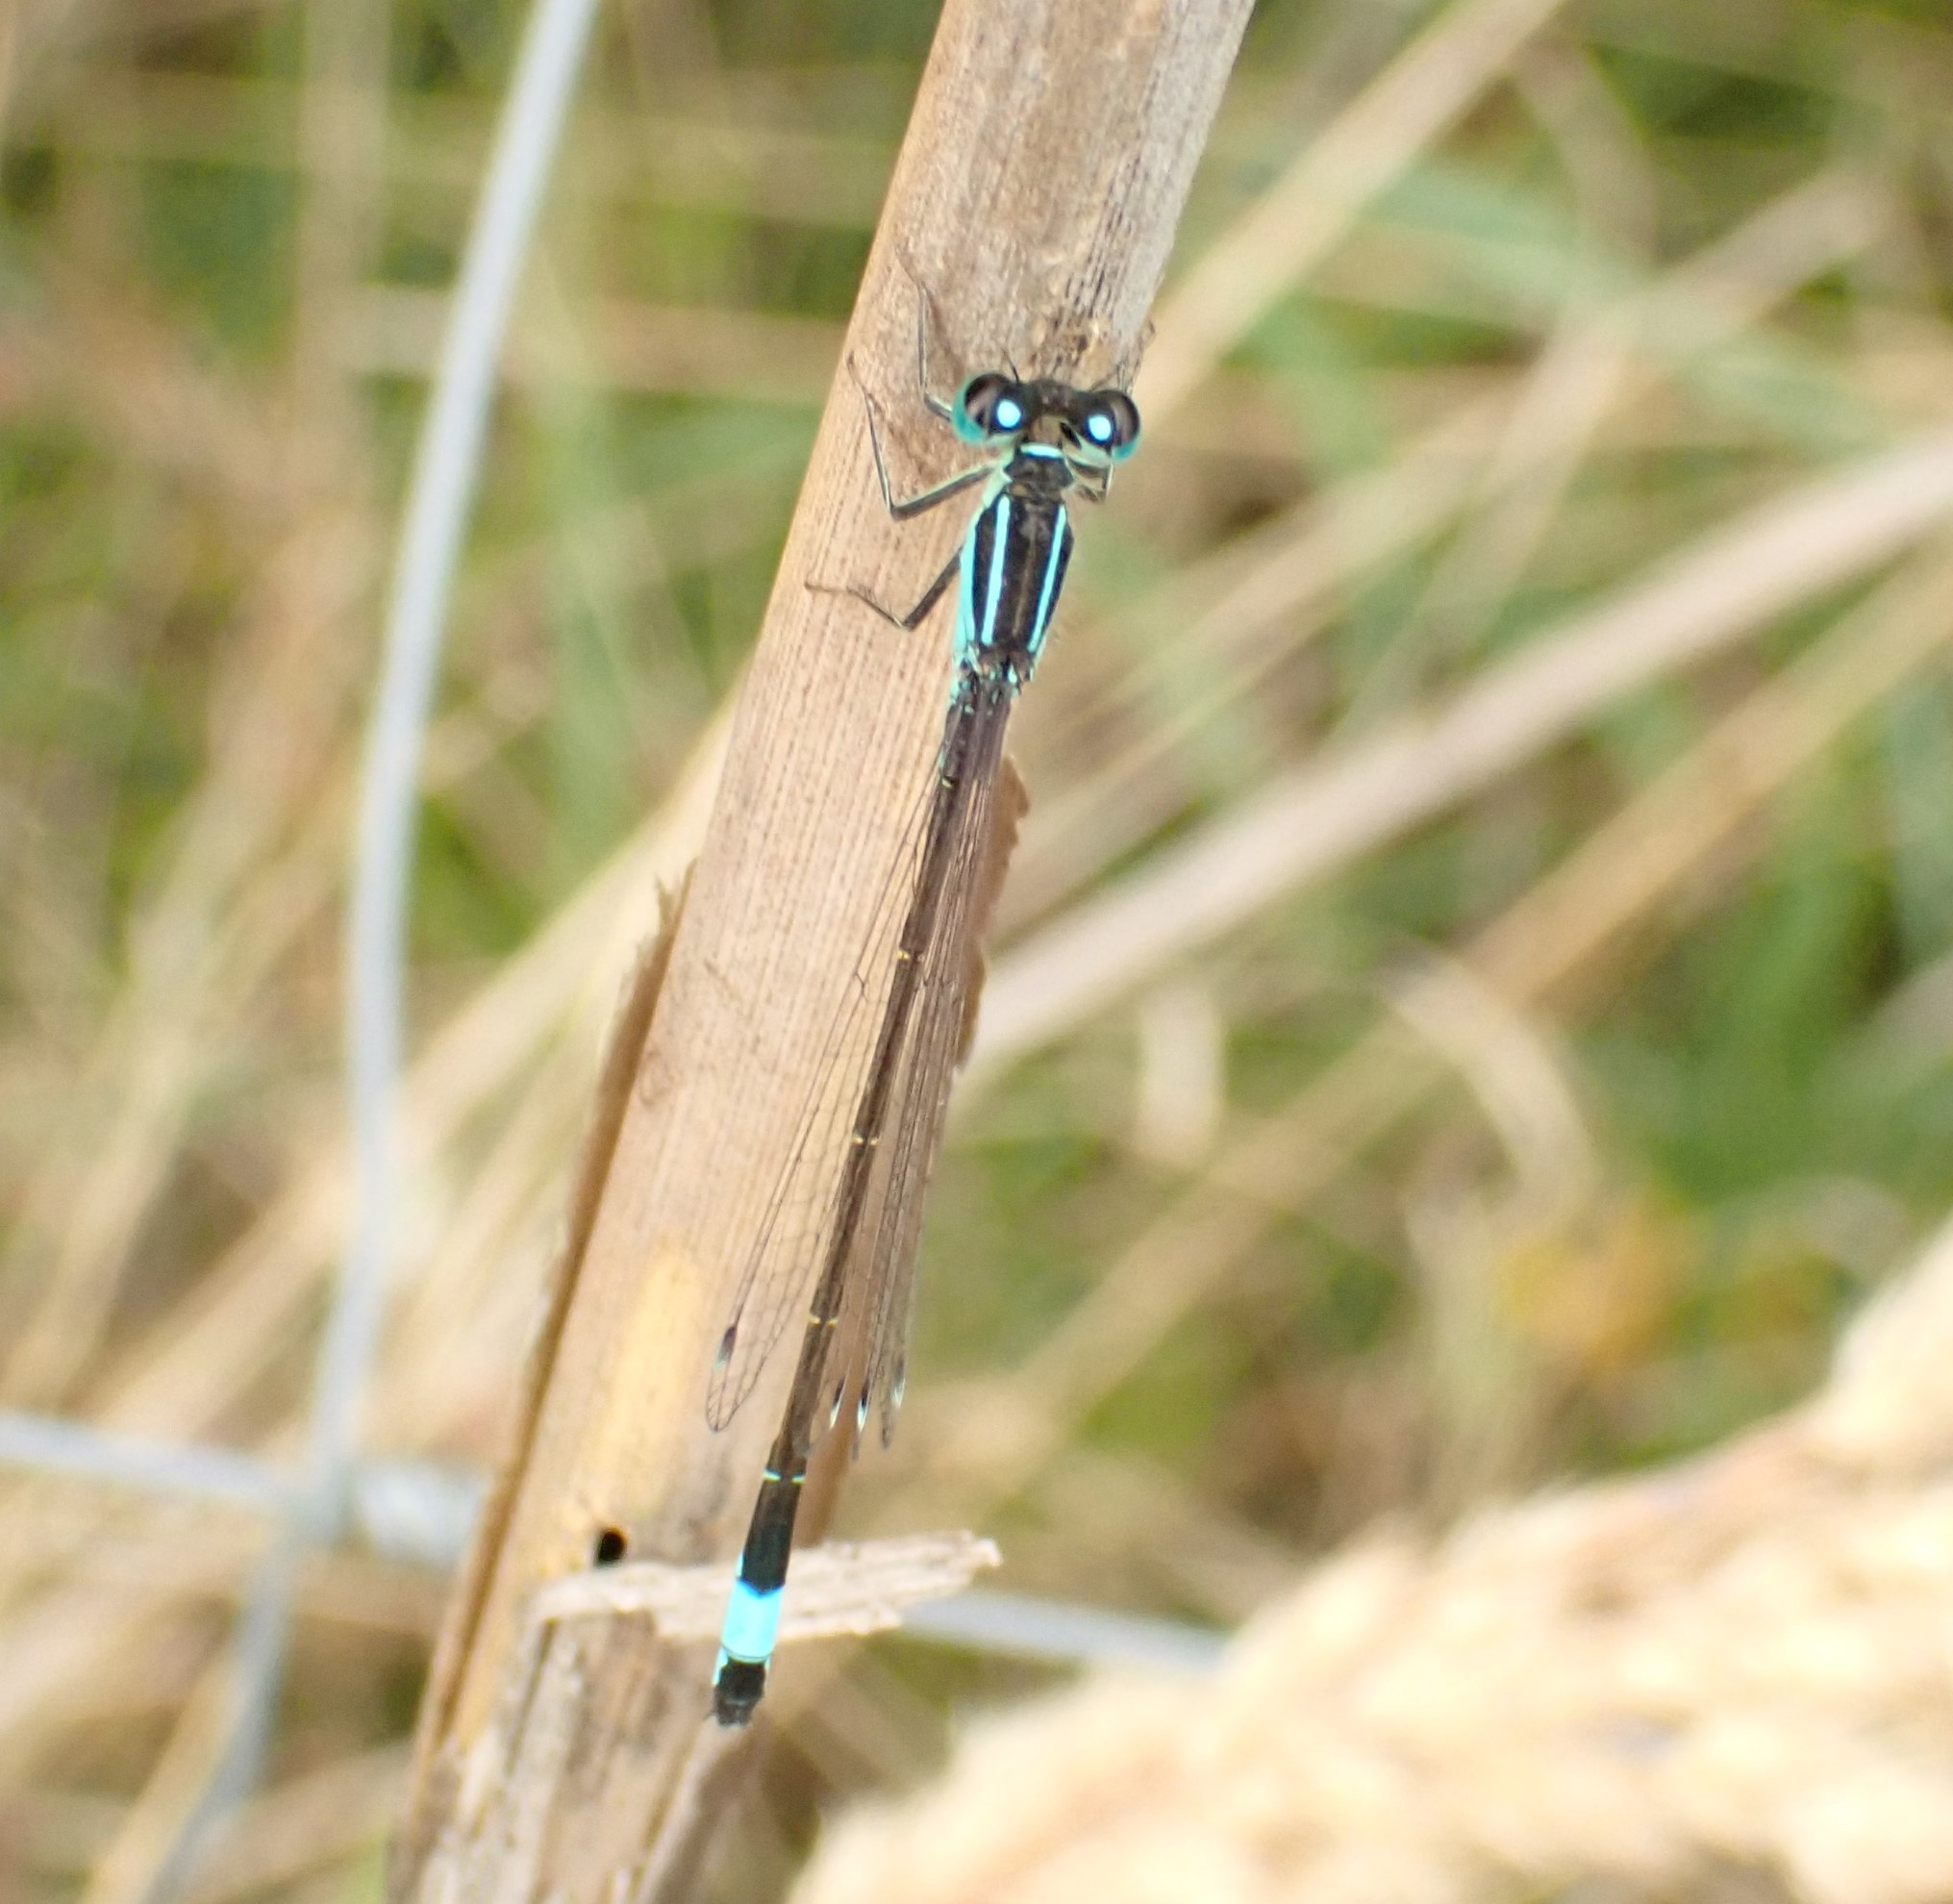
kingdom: Animalia
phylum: Arthropoda
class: Insecta
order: Odonata
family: Coenagrionidae
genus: Ischnura
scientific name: Ischnura elegans
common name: Blue-tailed damselfly
